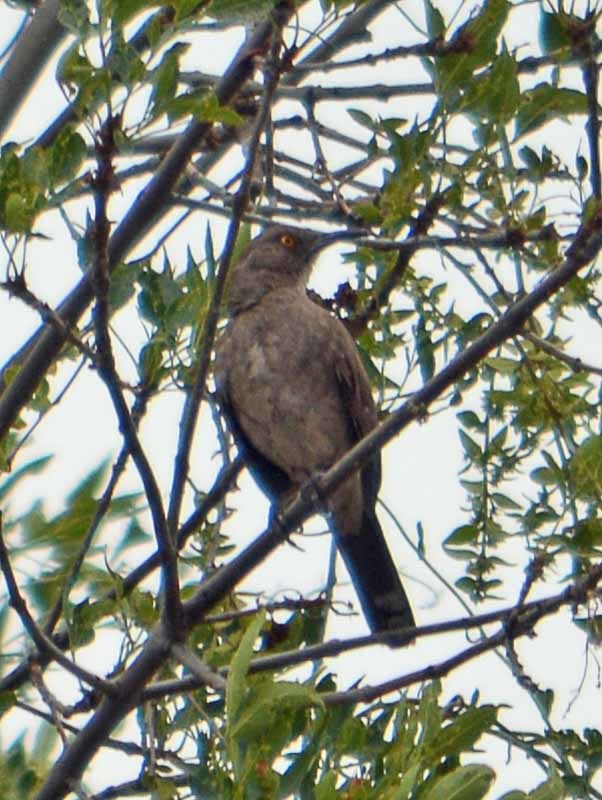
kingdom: Animalia
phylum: Chordata
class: Aves
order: Passeriformes
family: Mimidae
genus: Toxostoma
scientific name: Toxostoma curvirostre
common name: Curve-billed thrasher
